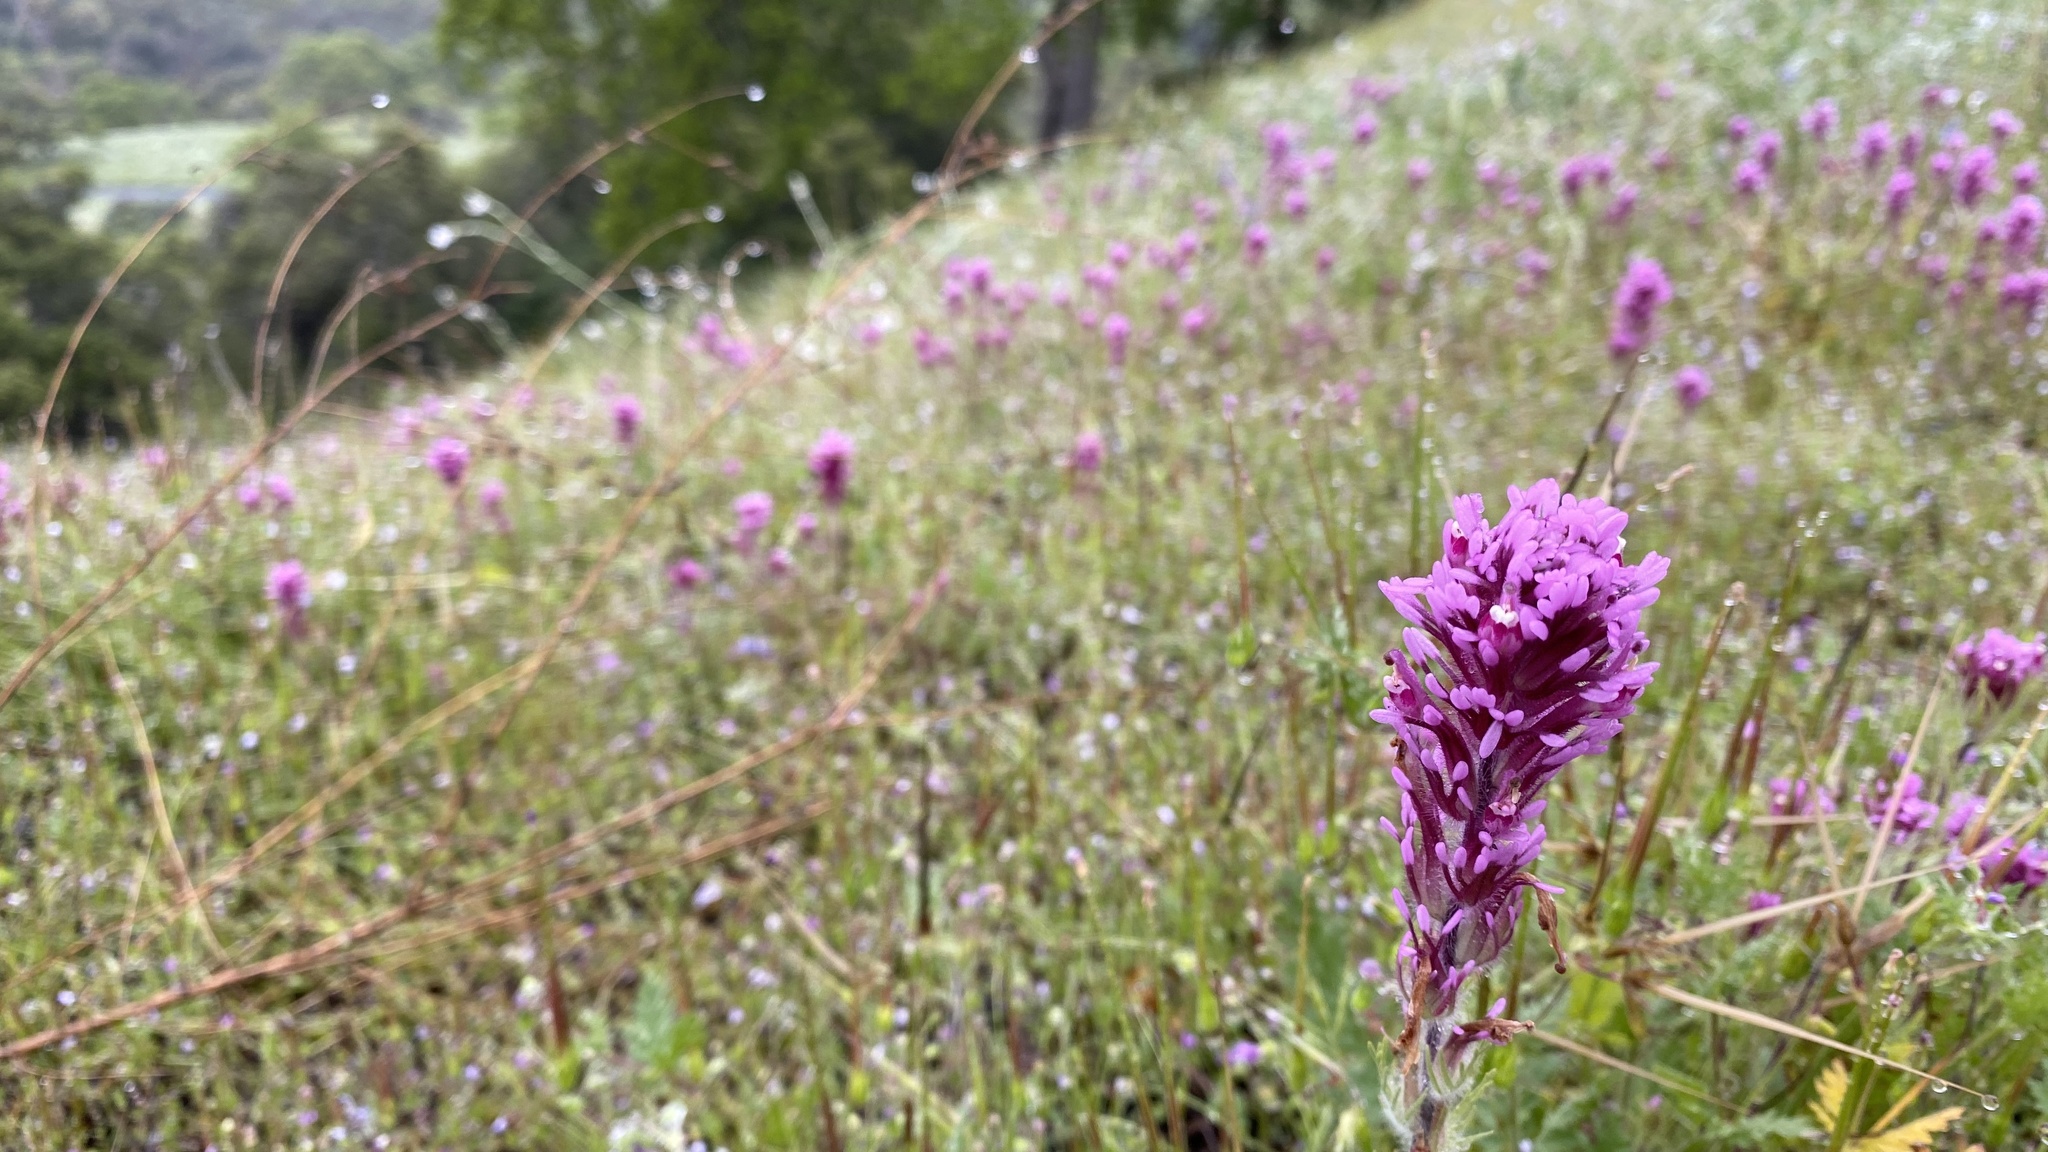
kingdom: Plantae
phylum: Tracheophyta
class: Magnoliopsida
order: Lamiales
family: Orobanchaceae
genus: Castilleja
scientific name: Castilleja exserta
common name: Purple owl-clover
